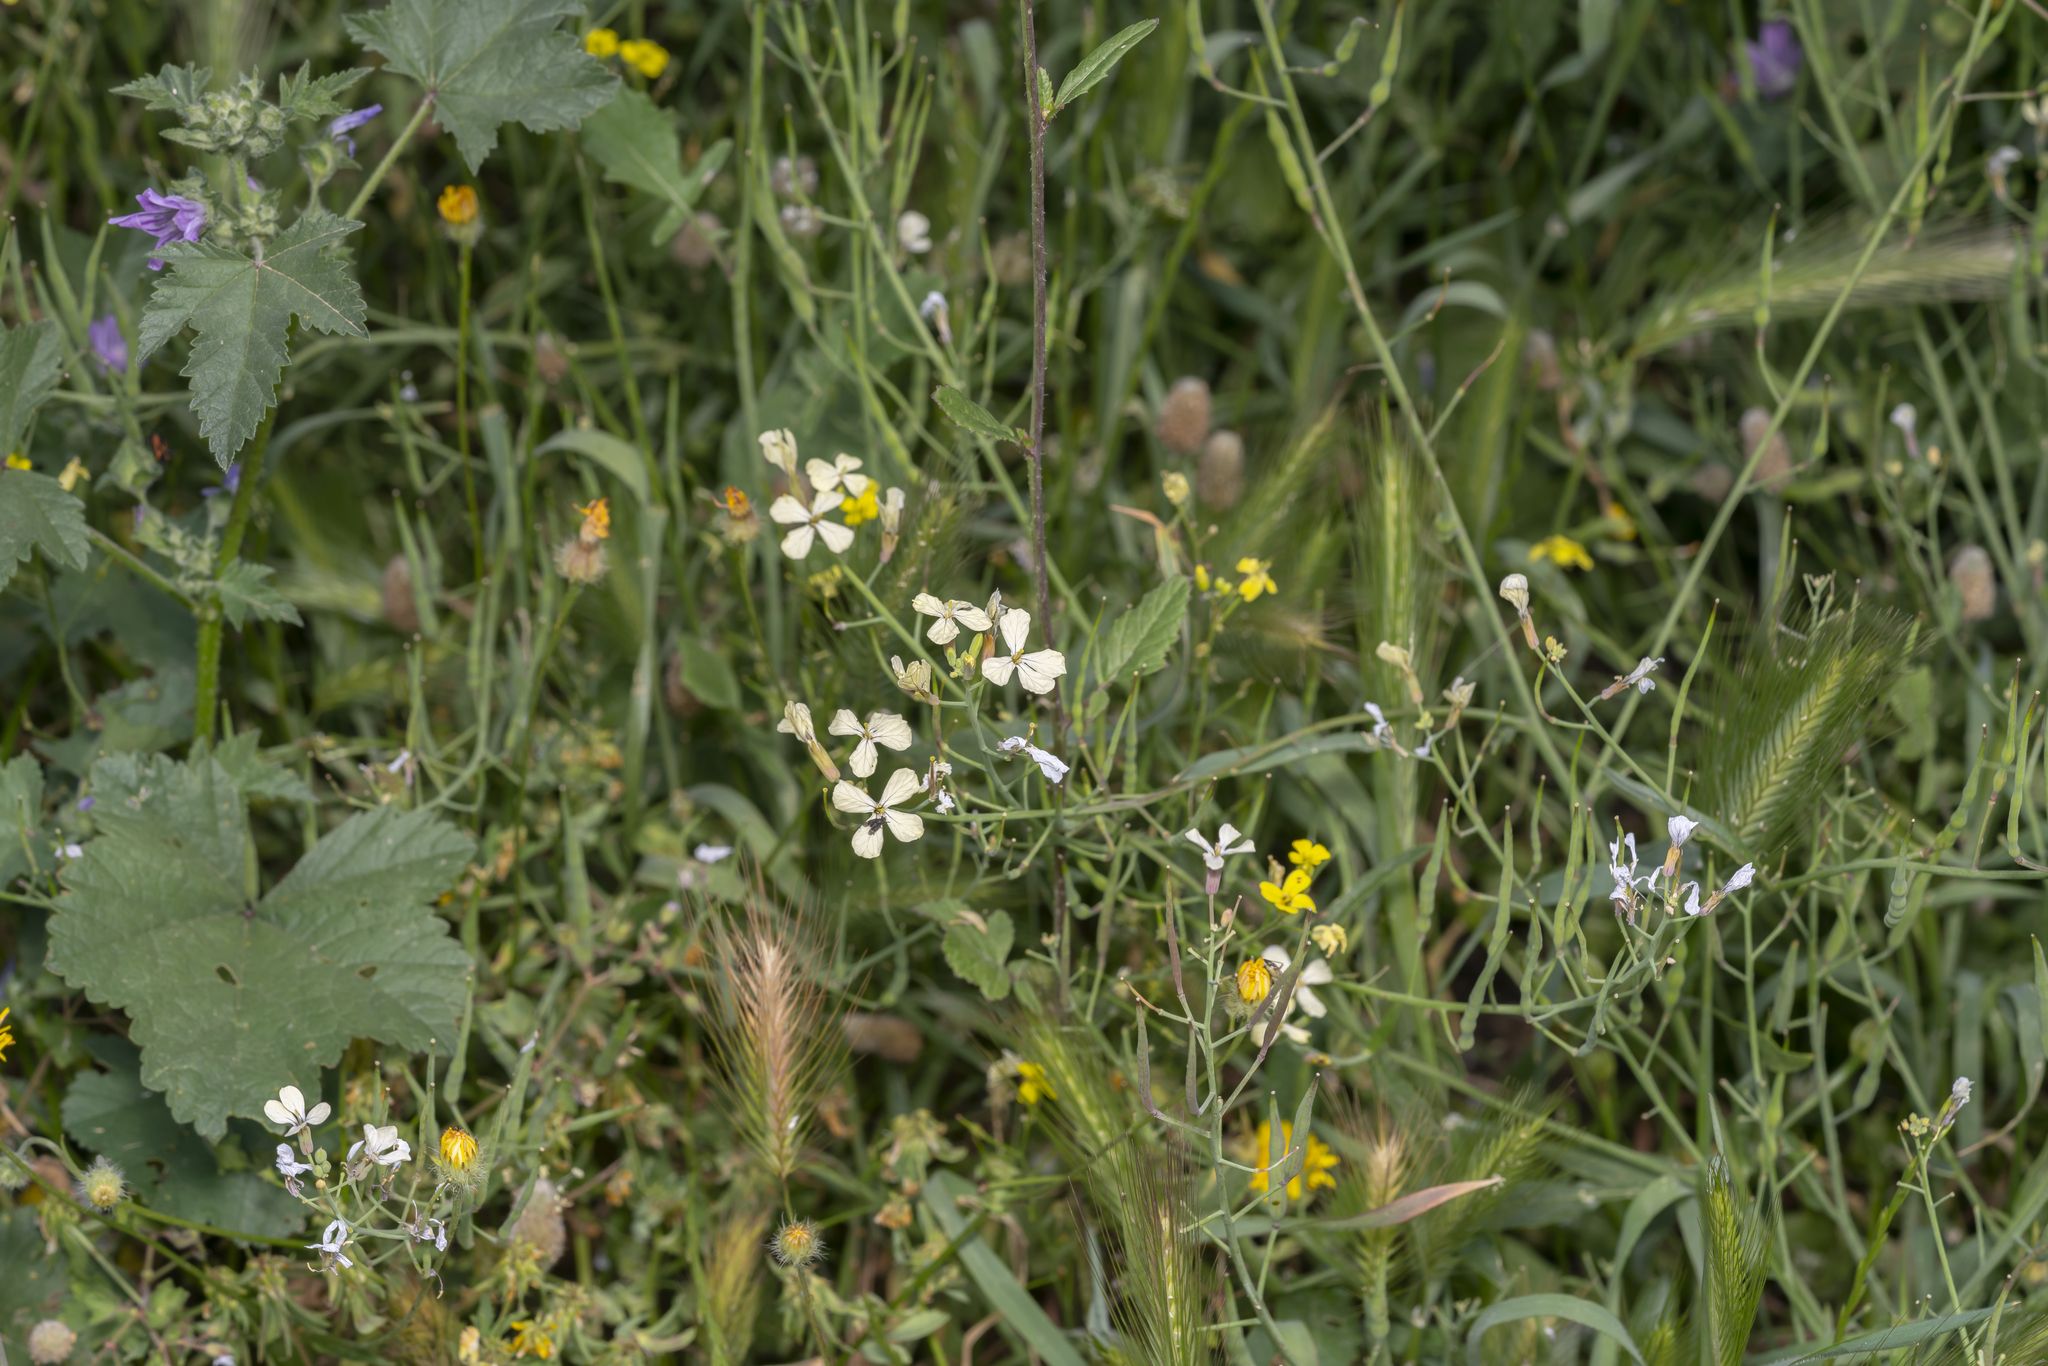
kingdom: Plantae
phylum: Tracheophyta
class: Magnoliopsida
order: Brassicales
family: Brassicaceae
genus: Raphanus
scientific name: Raphanus raphanistrum
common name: Wild radish
